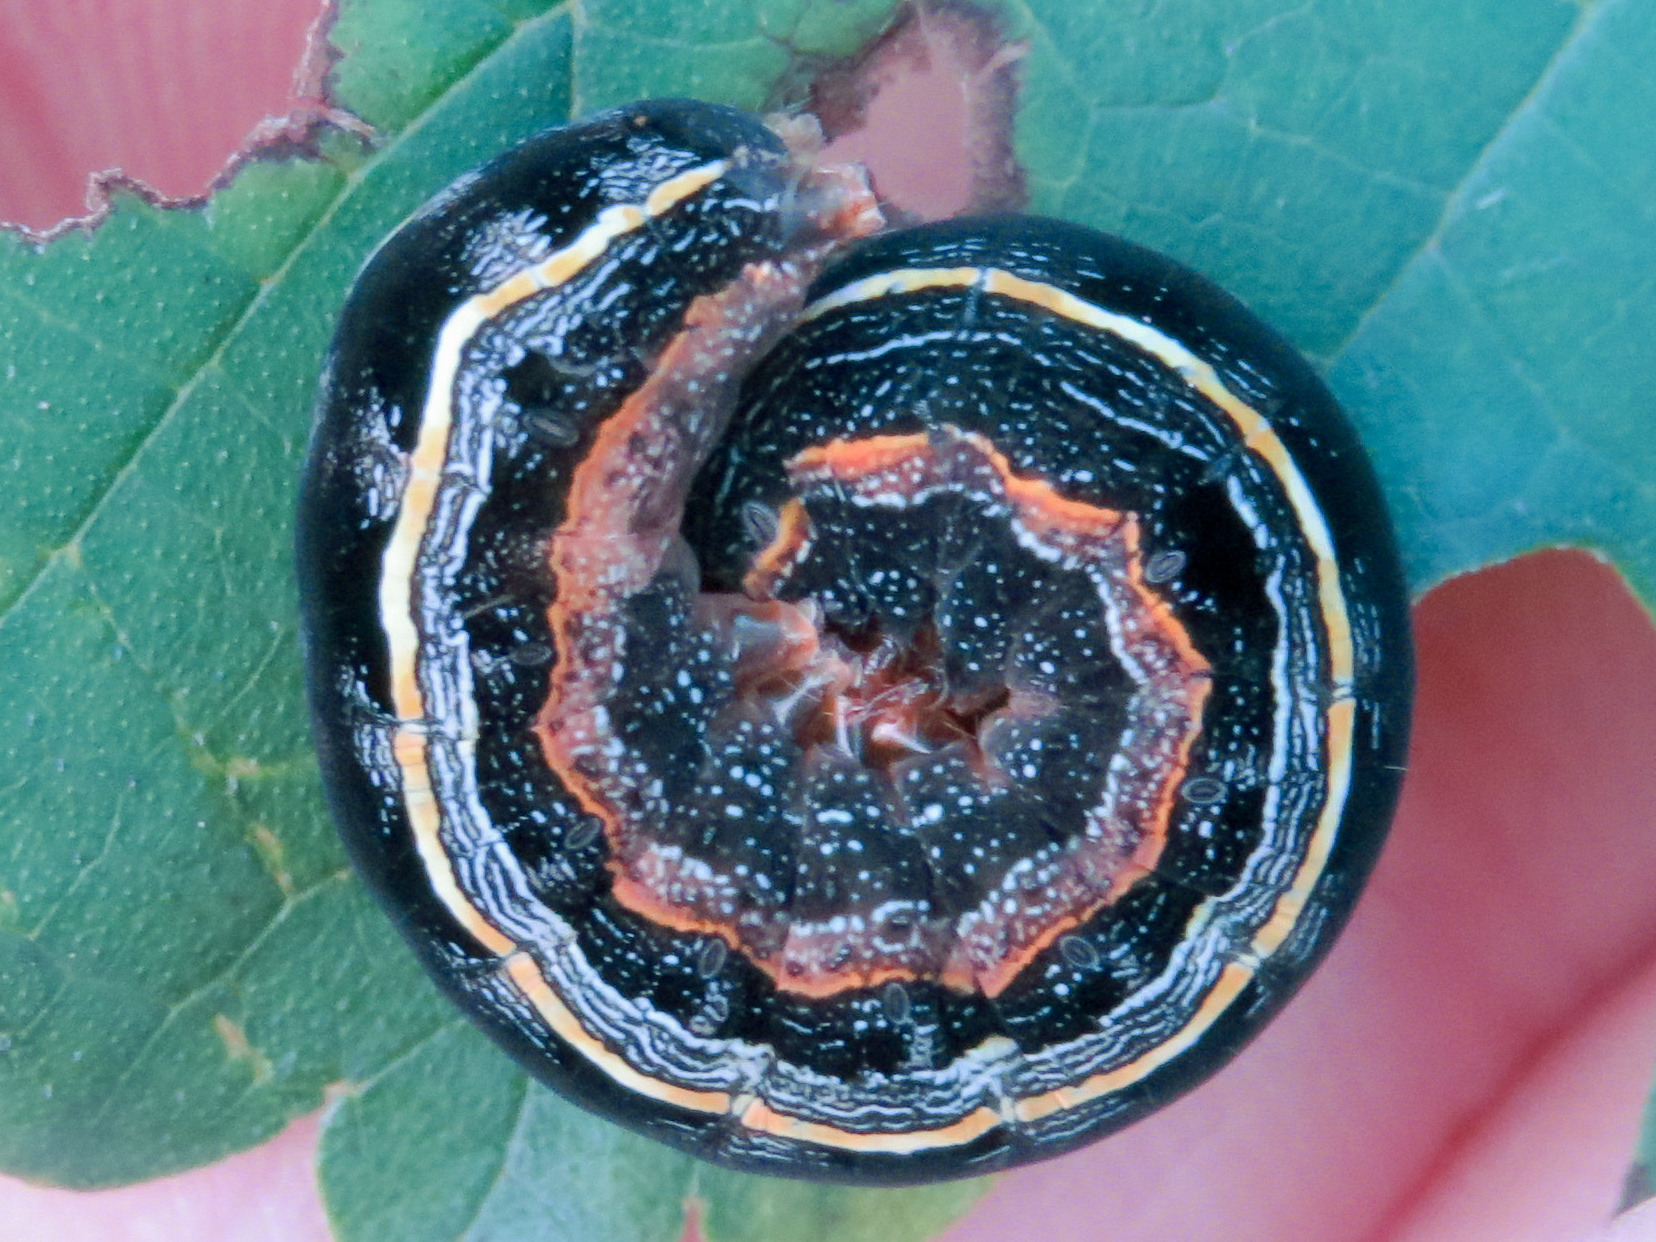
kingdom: Animalia
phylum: Arthropoda
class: Insecta
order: Lepidoptera
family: Noctuidae
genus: Spodoptera
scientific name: Spodoptera ornithogalli
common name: Yellow-striped armyworm
